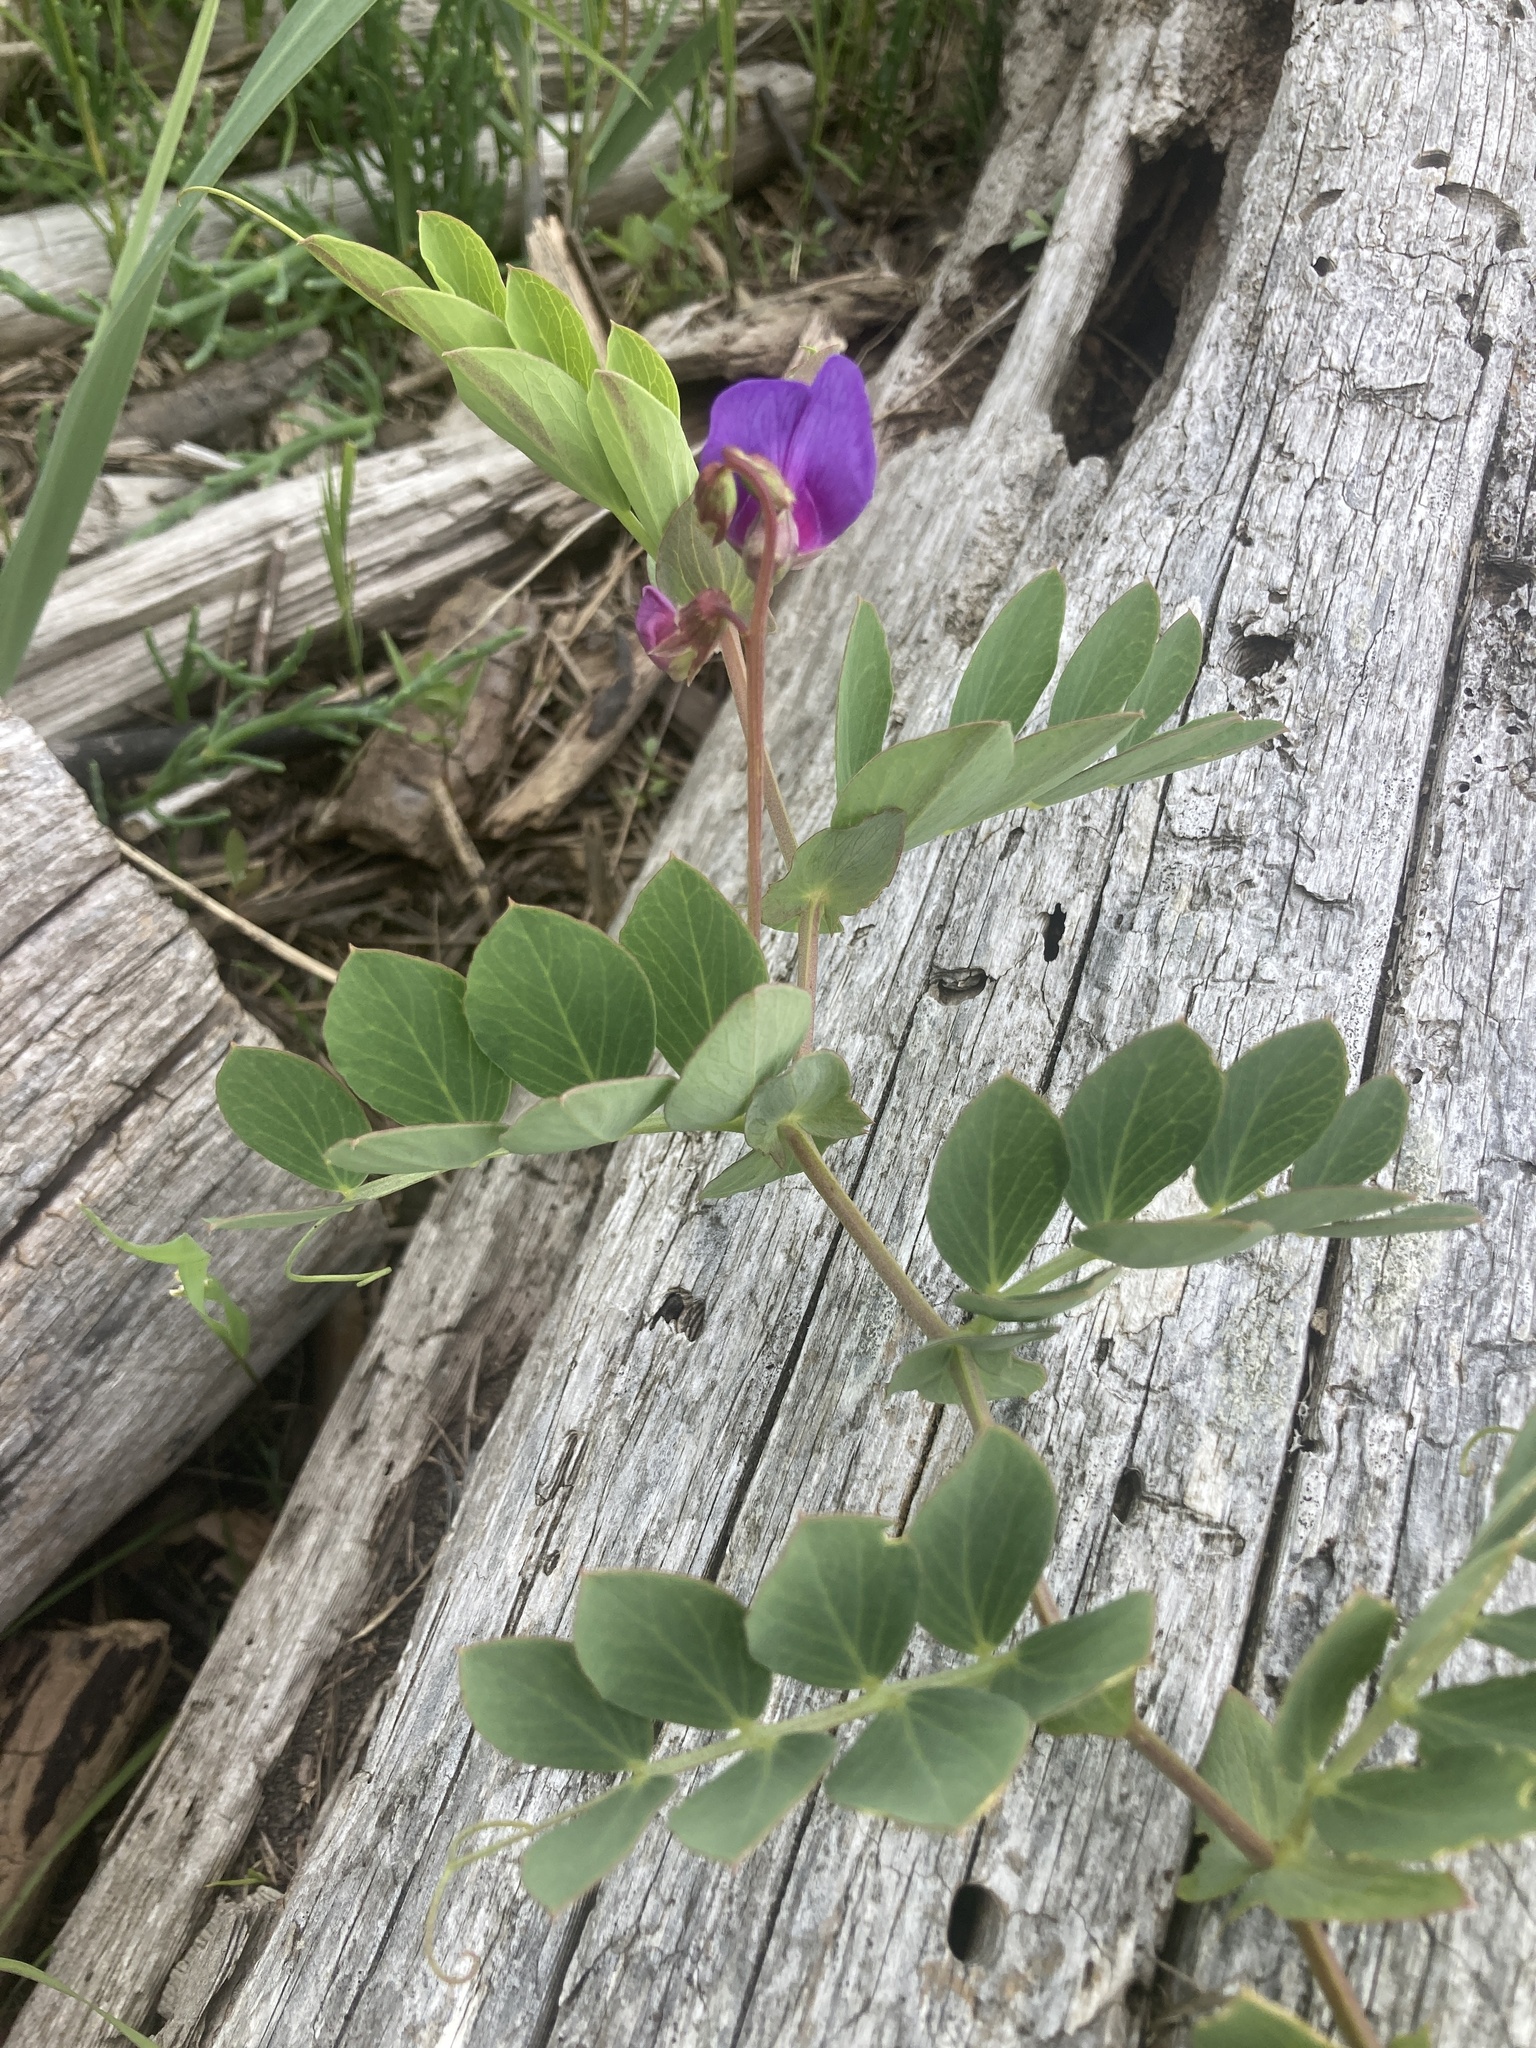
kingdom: Plantae
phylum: Tracheophyta
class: Magnoliopsida
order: Fabales
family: Fabaceae
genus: Lathyrus
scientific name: Lathyrus japonicus
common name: Sea pea
